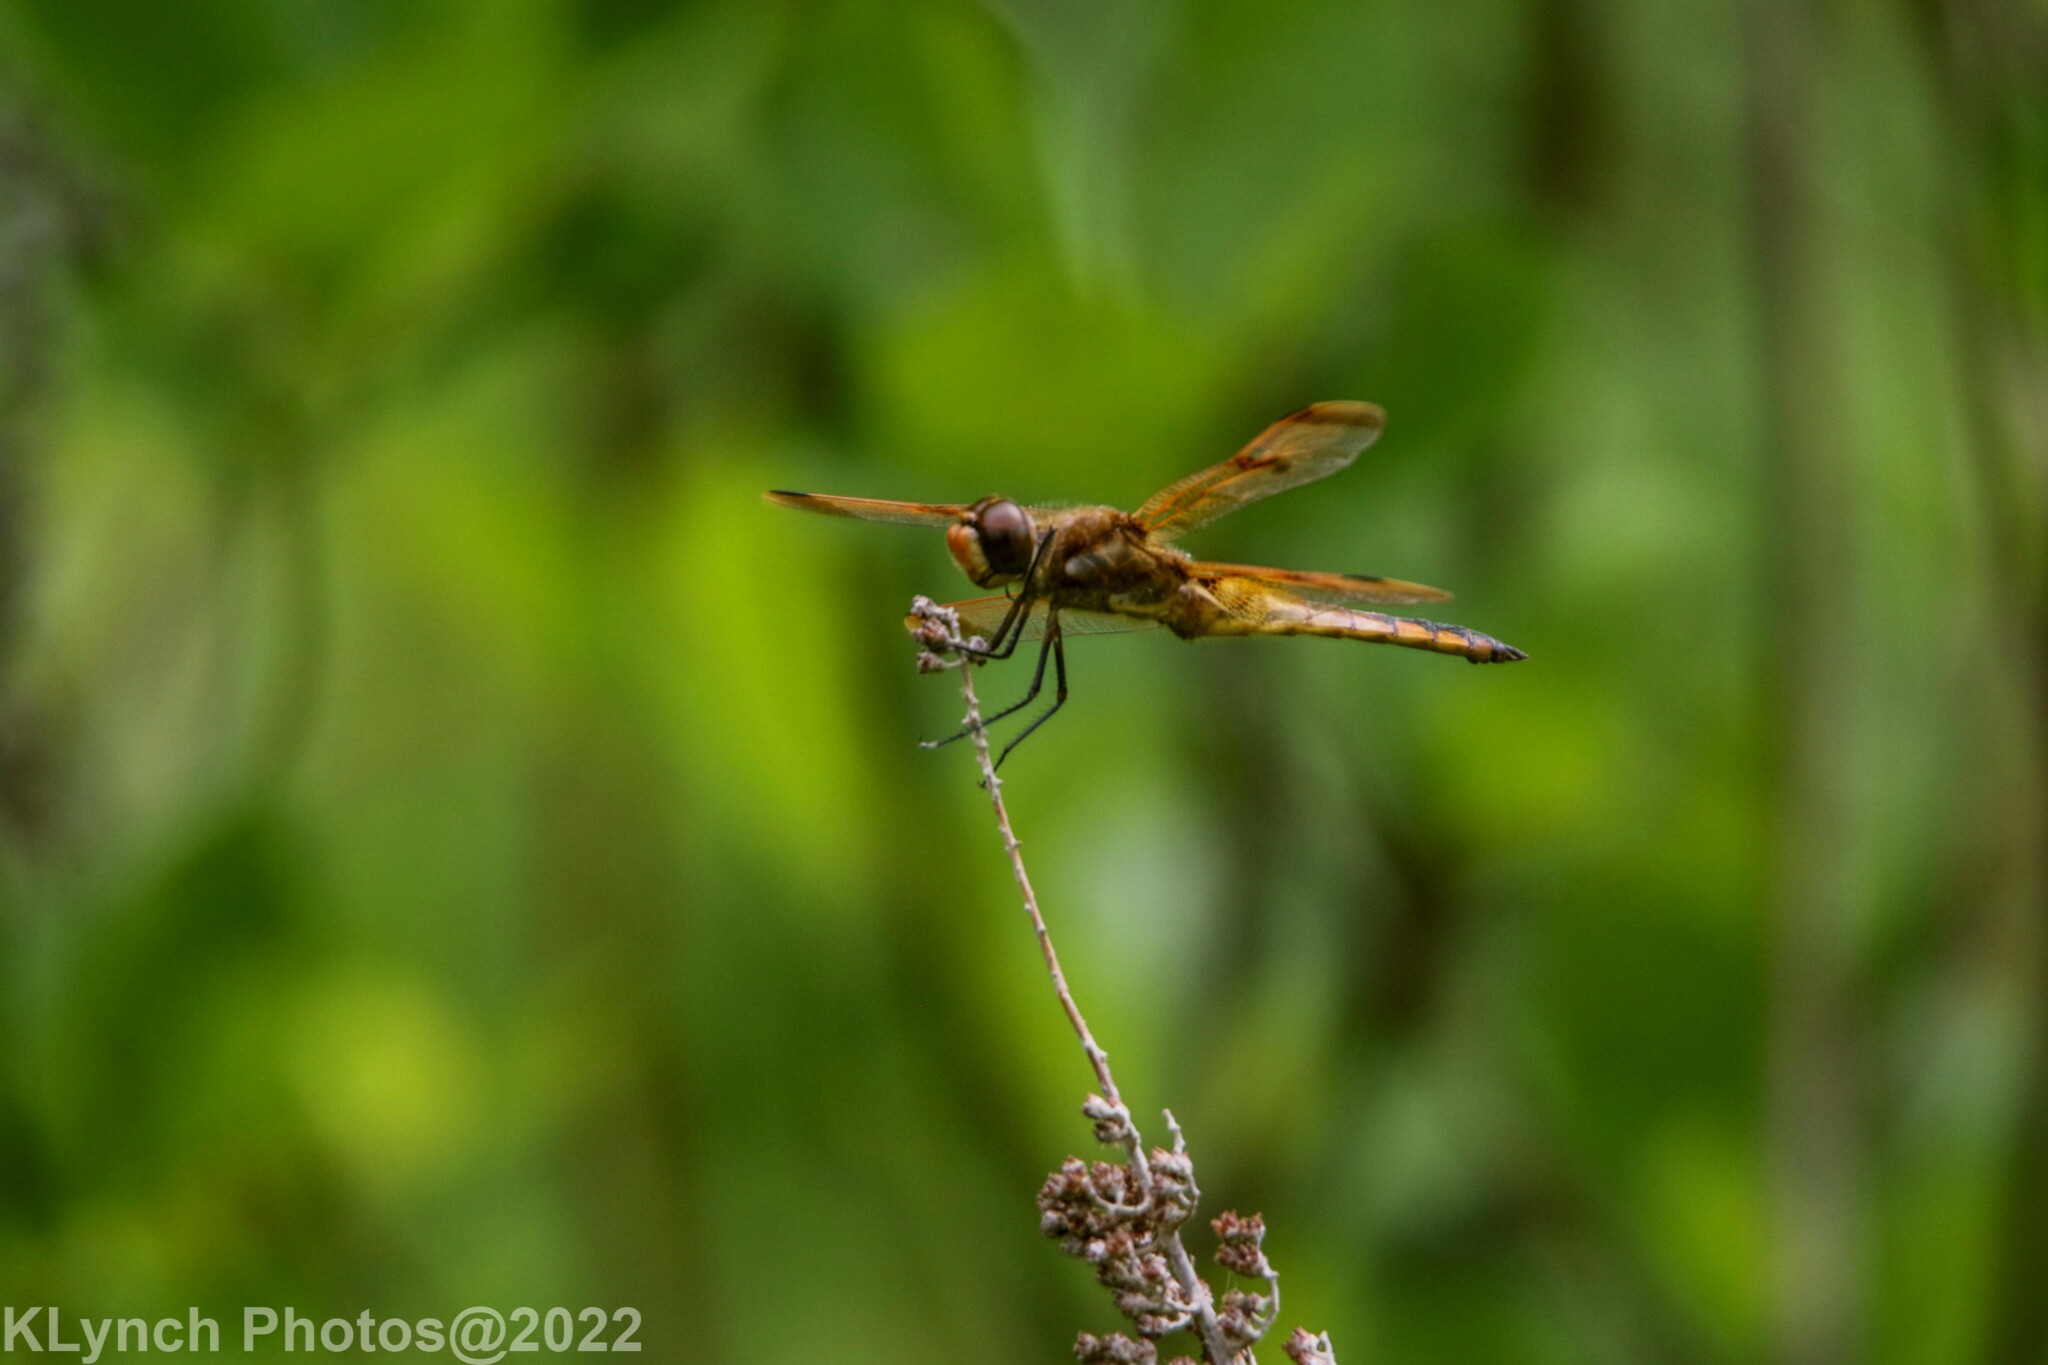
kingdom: Animalia
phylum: Arthropoda
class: Insecta
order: Odonata
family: Libellulidae
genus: Libellula
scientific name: Libellula semifasciata
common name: Painted skimmer
